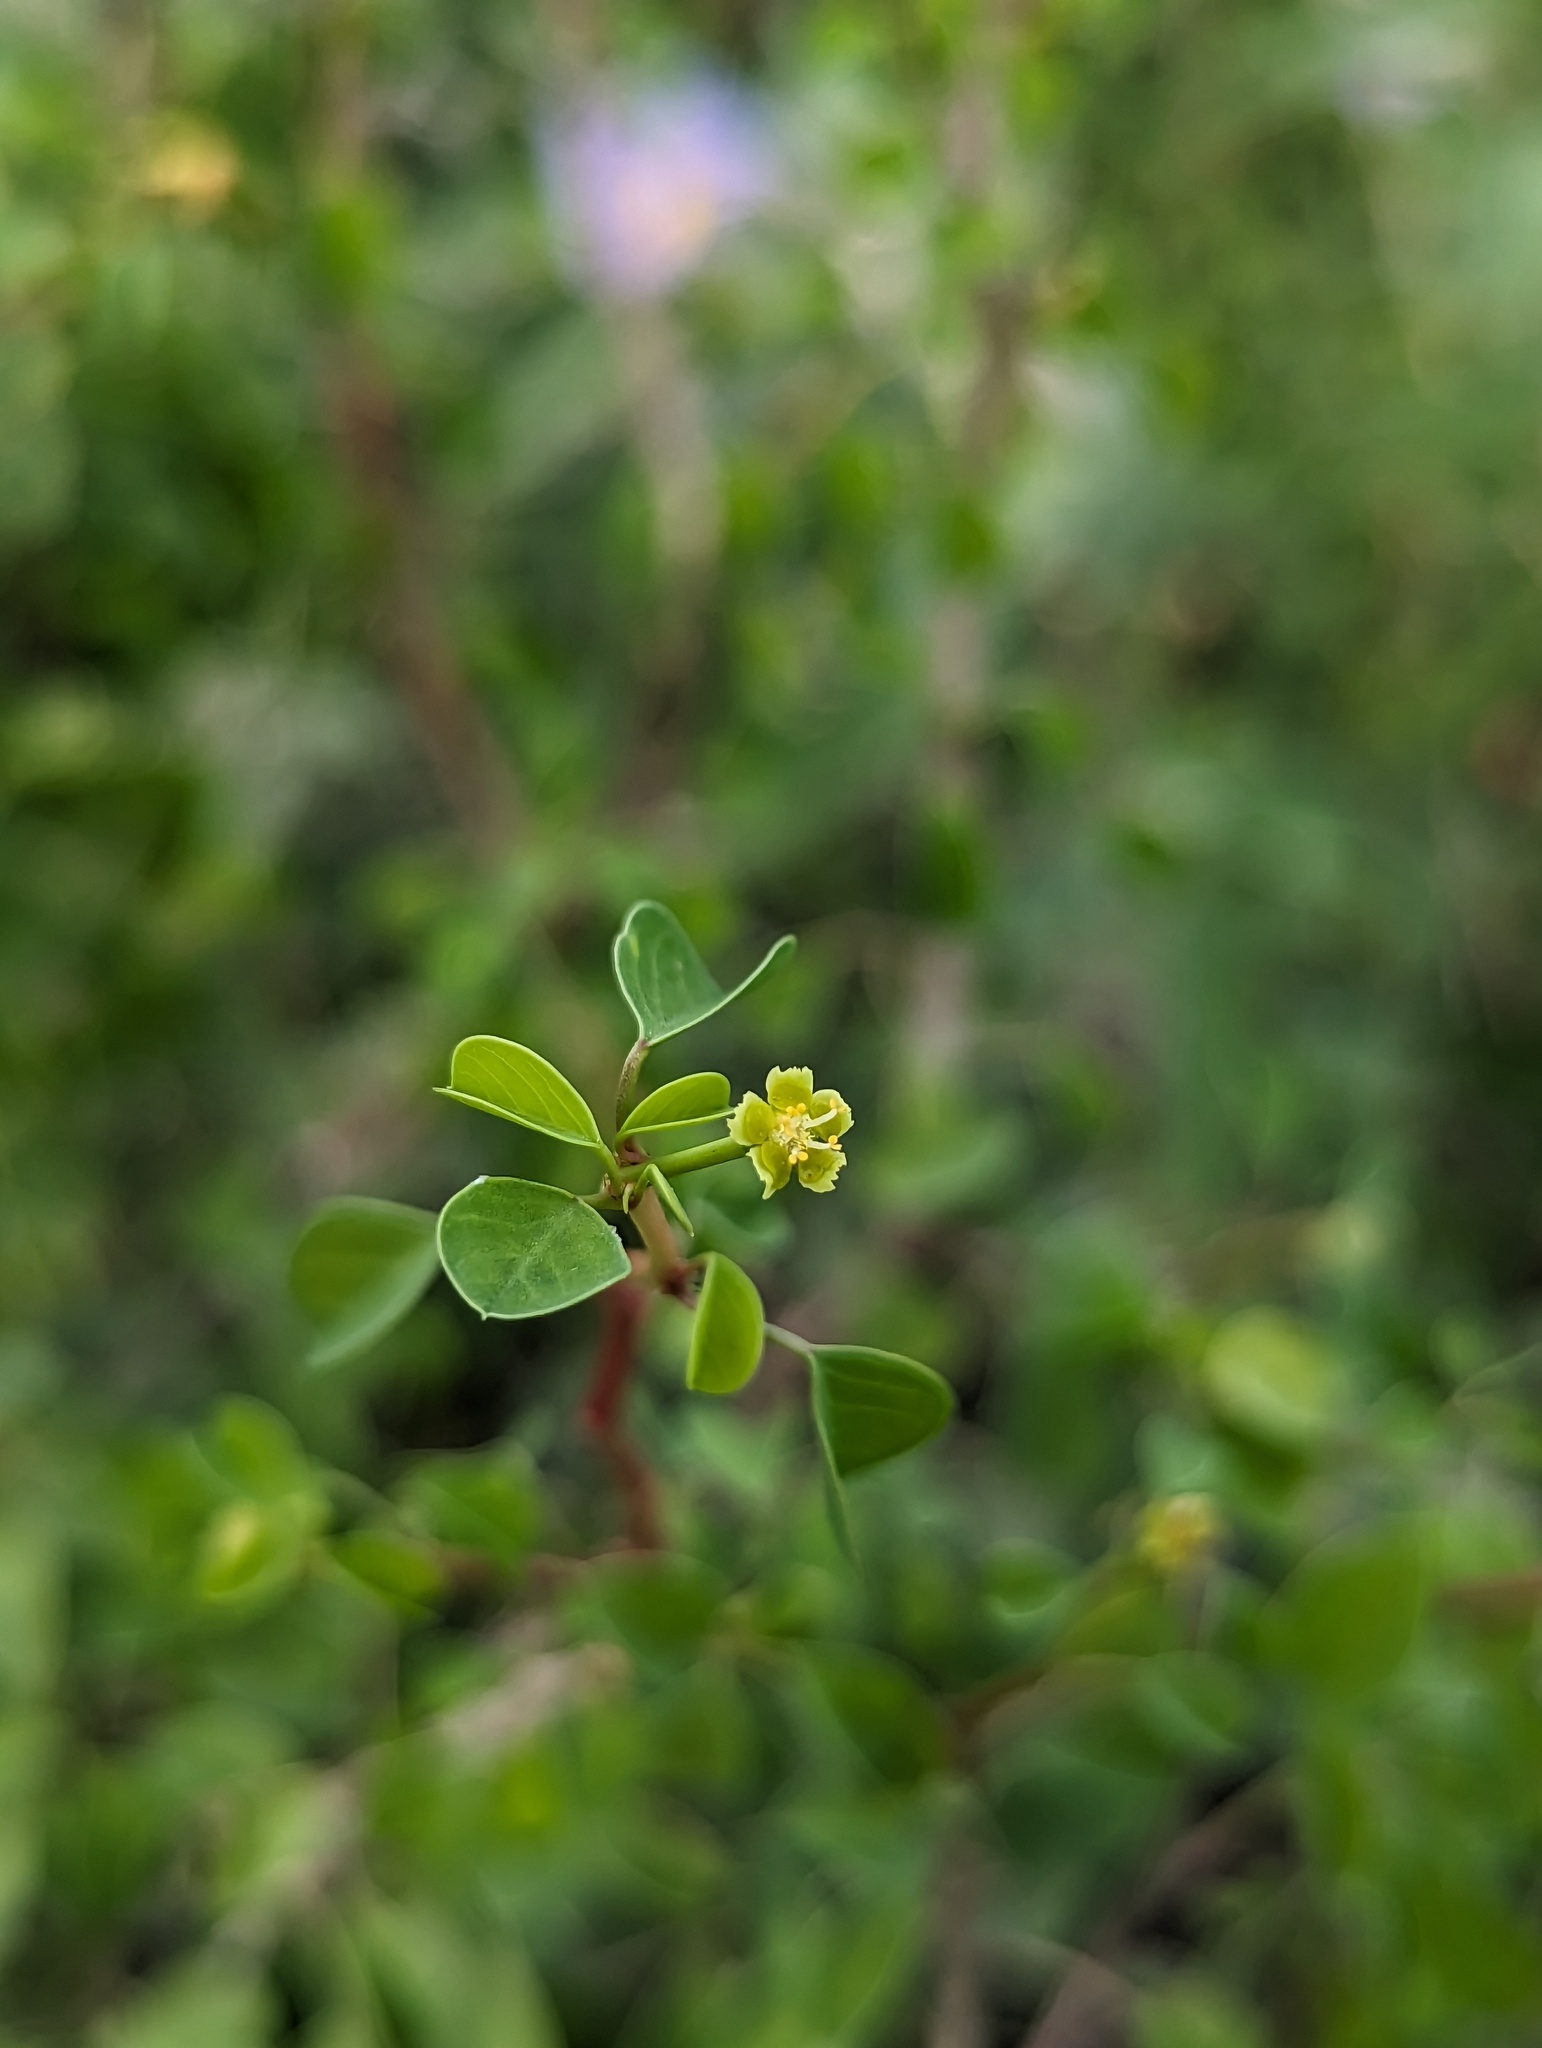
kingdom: Plantae
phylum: Tracheophyta
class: Magnoliopsida
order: Malpighiales
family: Euphorbiaceae
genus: Euphorbia
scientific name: Euphorbia californica
